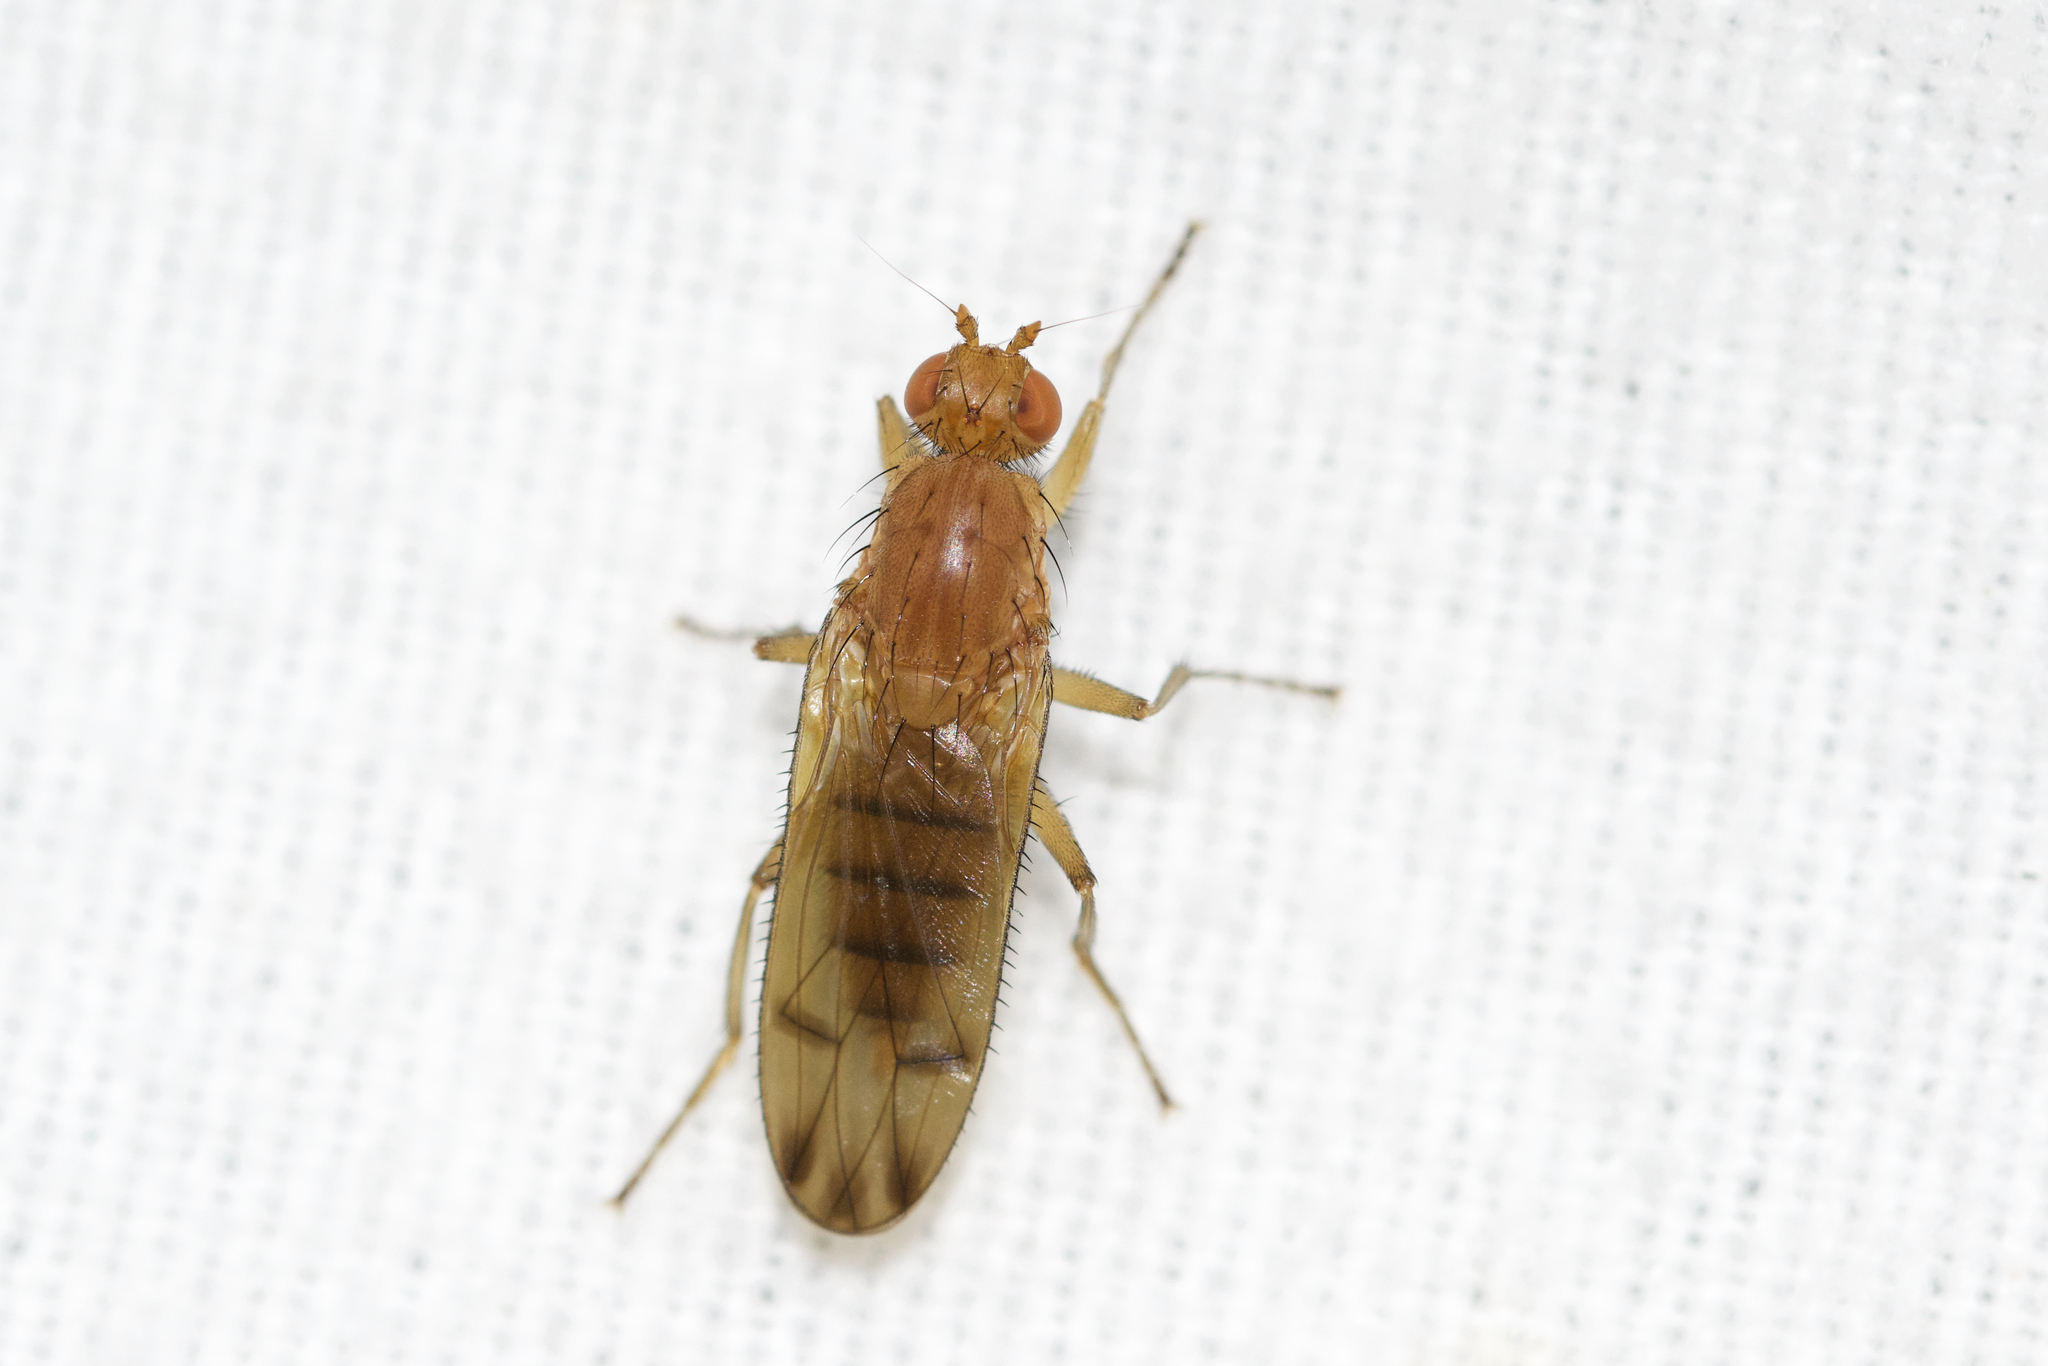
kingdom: Animalia
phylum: Arthropoda
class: Insecta
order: Diptera
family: Heleomyzidae
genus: Amoebaleria
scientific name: Amoebaleria helvola
